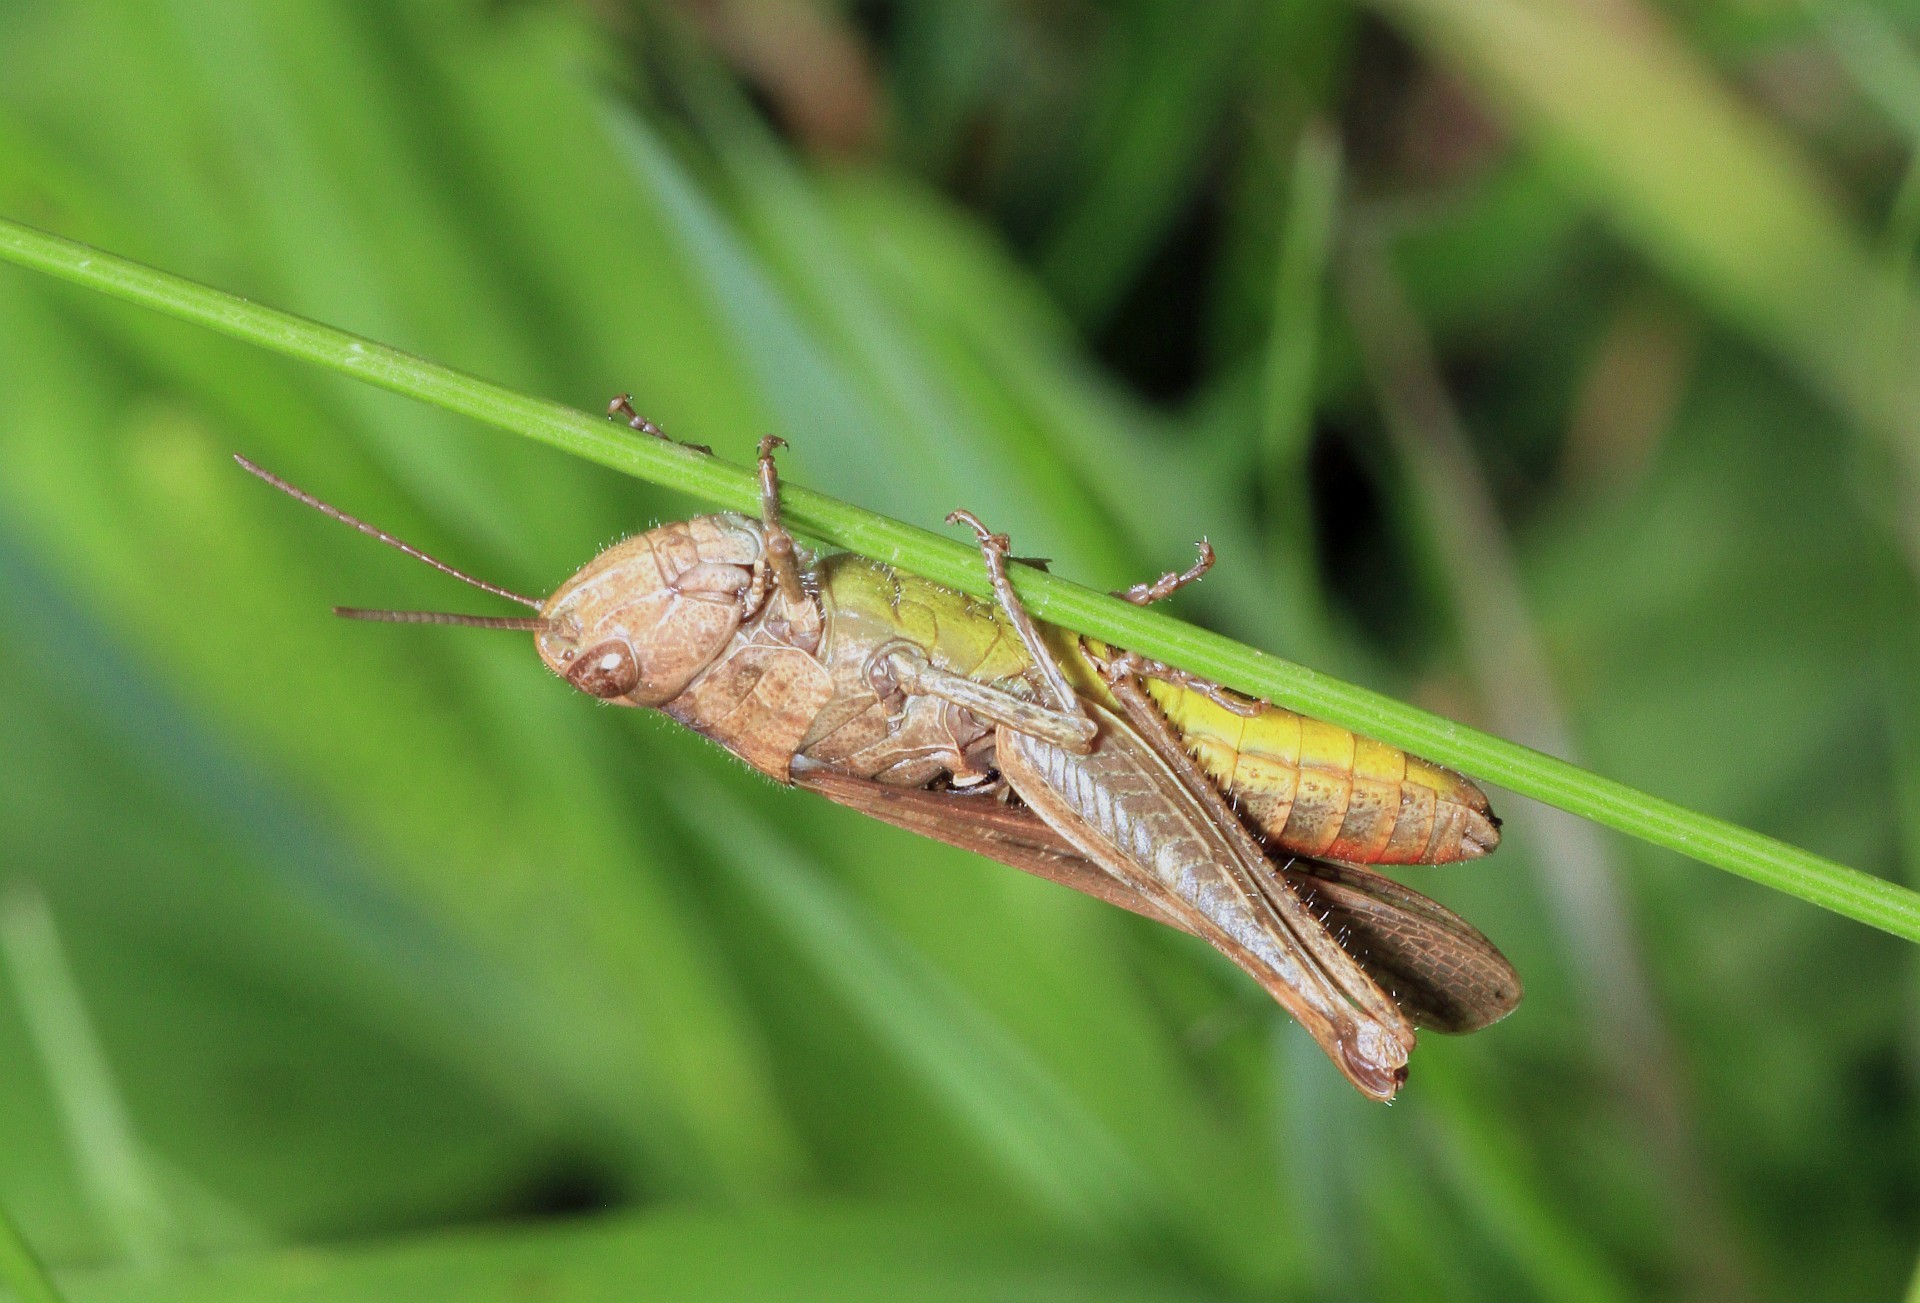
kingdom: Animalia
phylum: Arthropoda
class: Insecta
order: Orthoptera
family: Acrididae
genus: Chorthippus
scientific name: Chorthippus brunneus
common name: Field grasshopper
